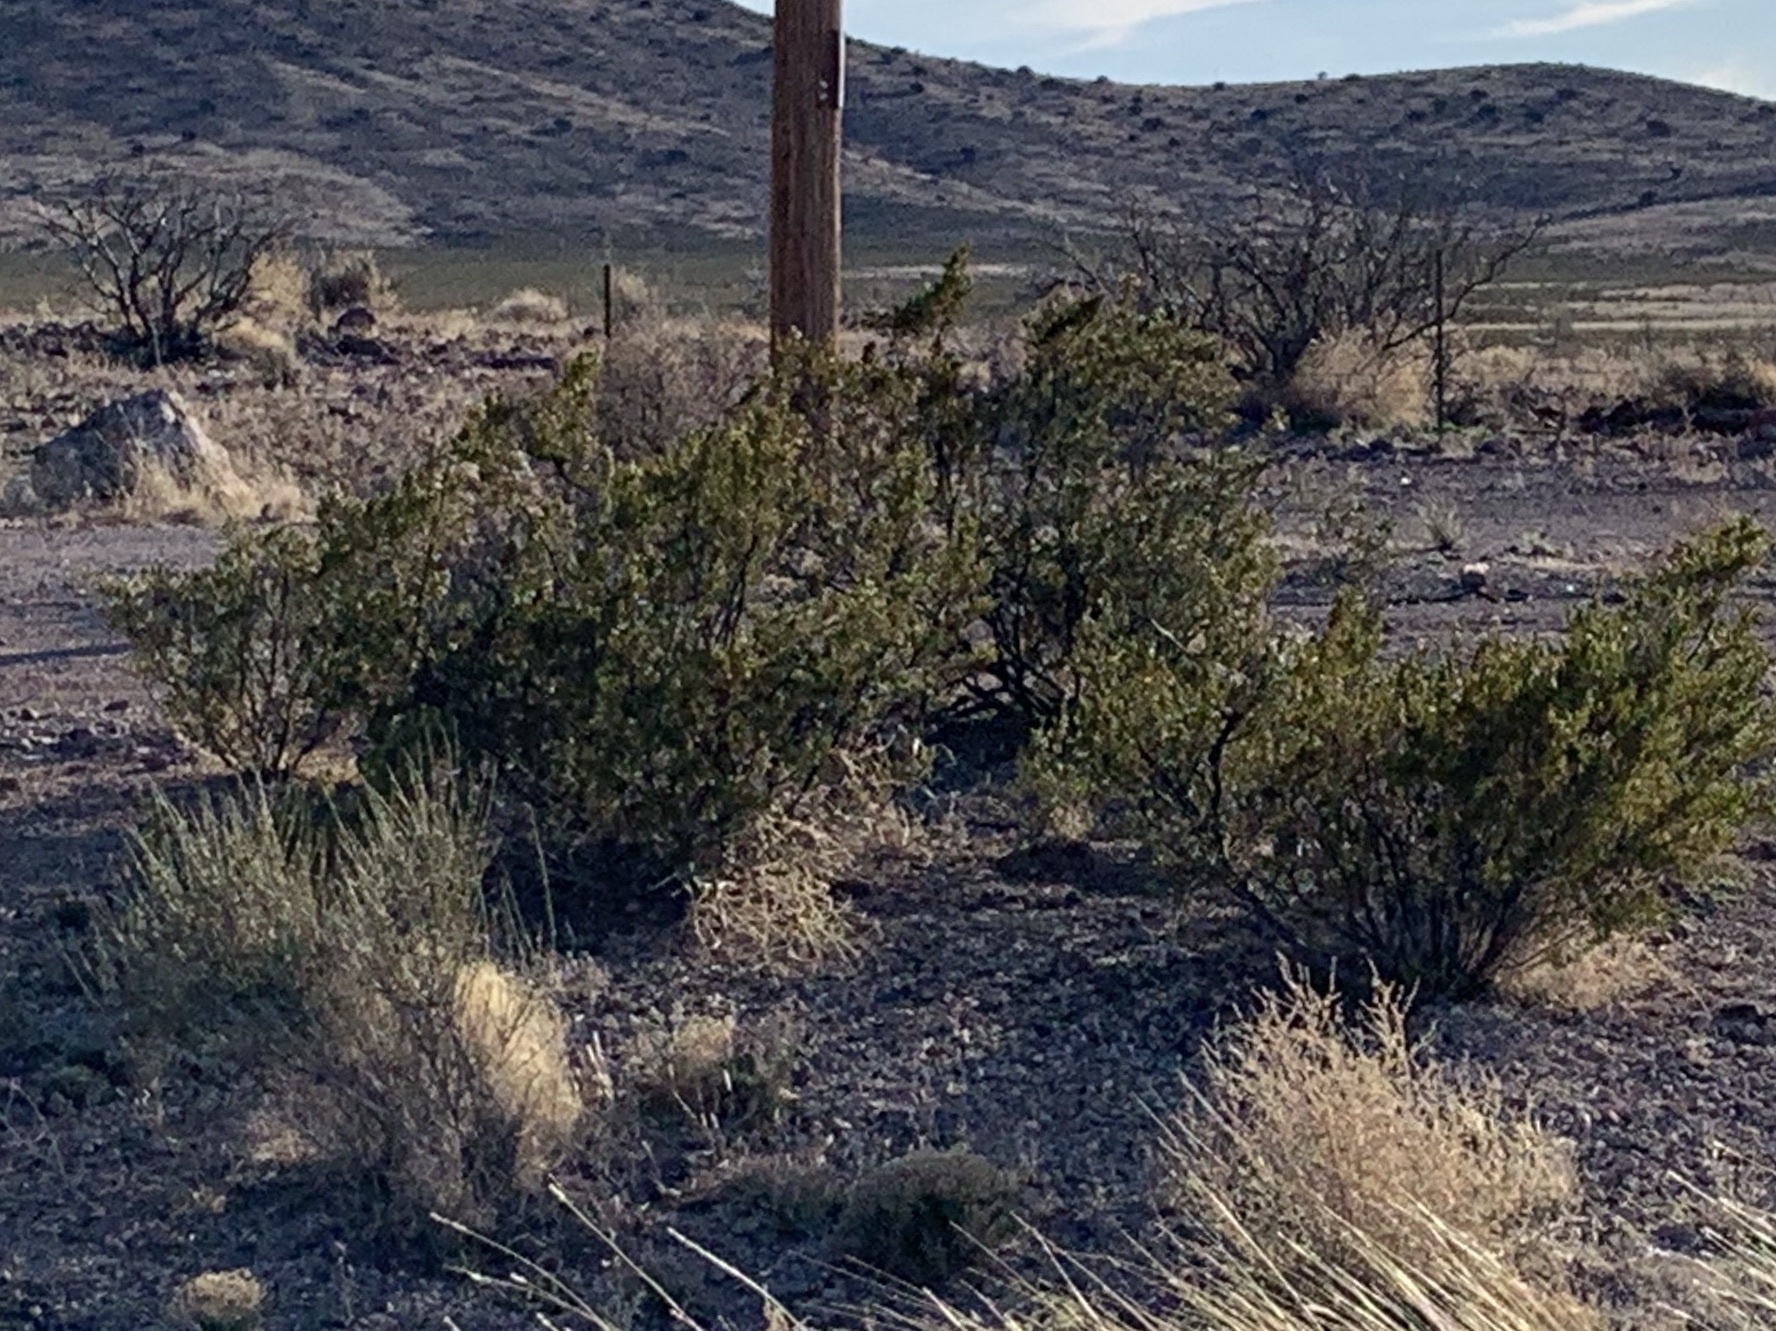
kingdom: Plantae
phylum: Tracheophyta
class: Magnoliopsida
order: Zygophyllales
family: Zygophyllaceae
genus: Larrea
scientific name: Larrea tridentata
